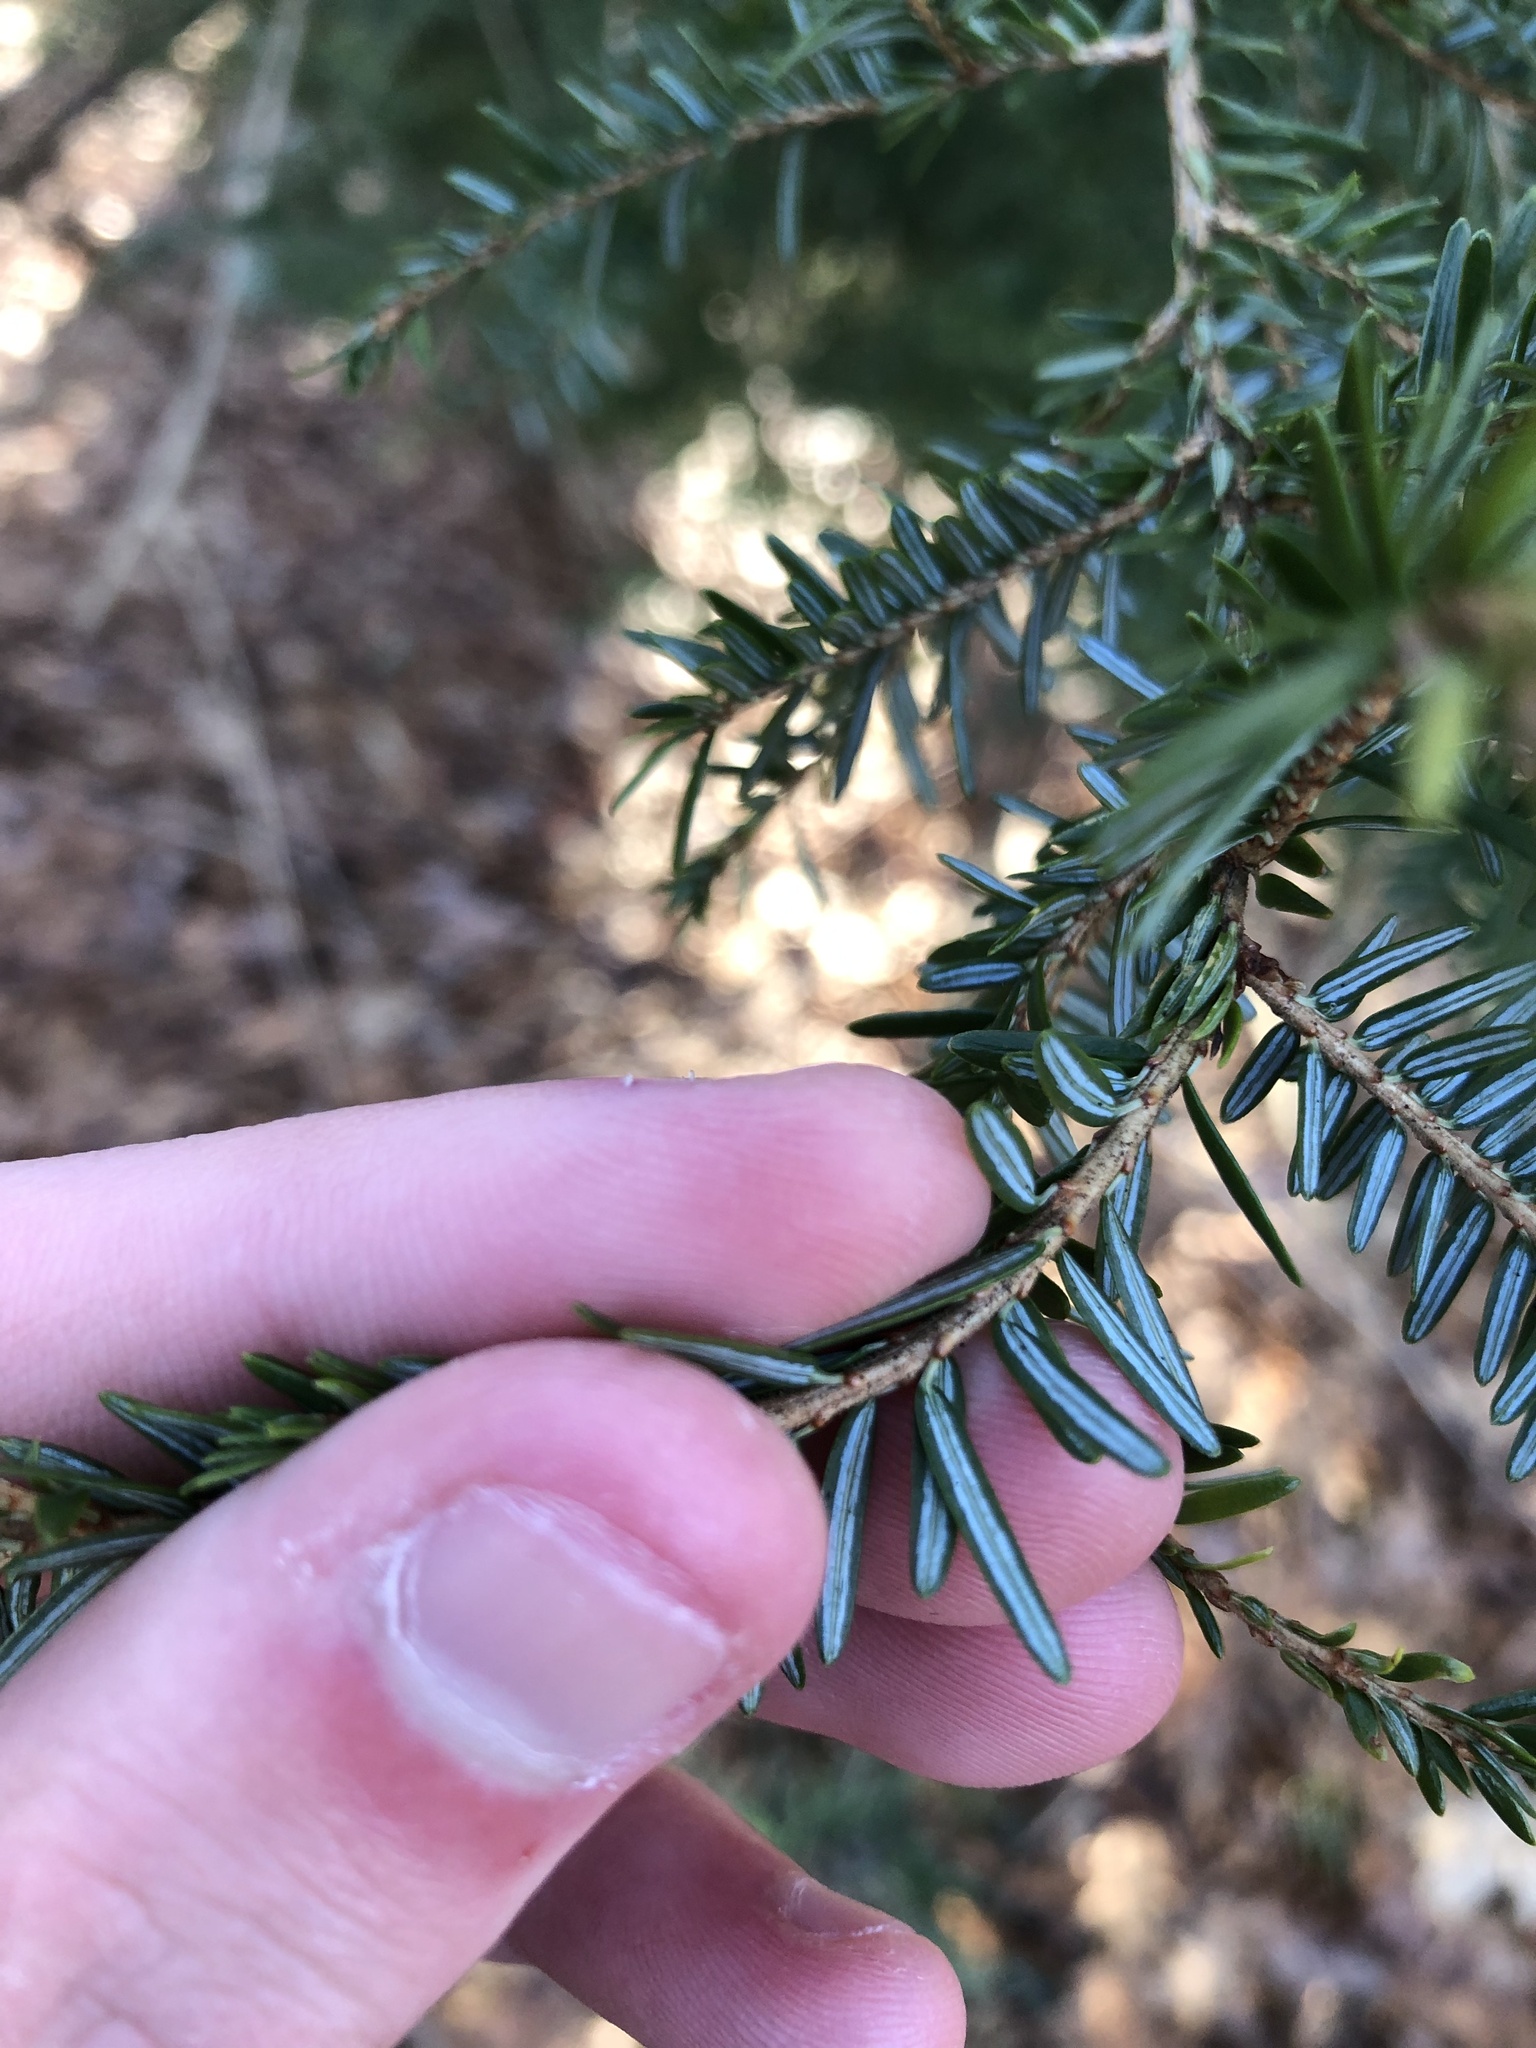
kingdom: Plantae
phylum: Tracheophyta
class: Pinopsida
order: Pinales
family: Pinaceae
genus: Tsuga
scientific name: Tsuga canadensis
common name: Eastern hemlock
